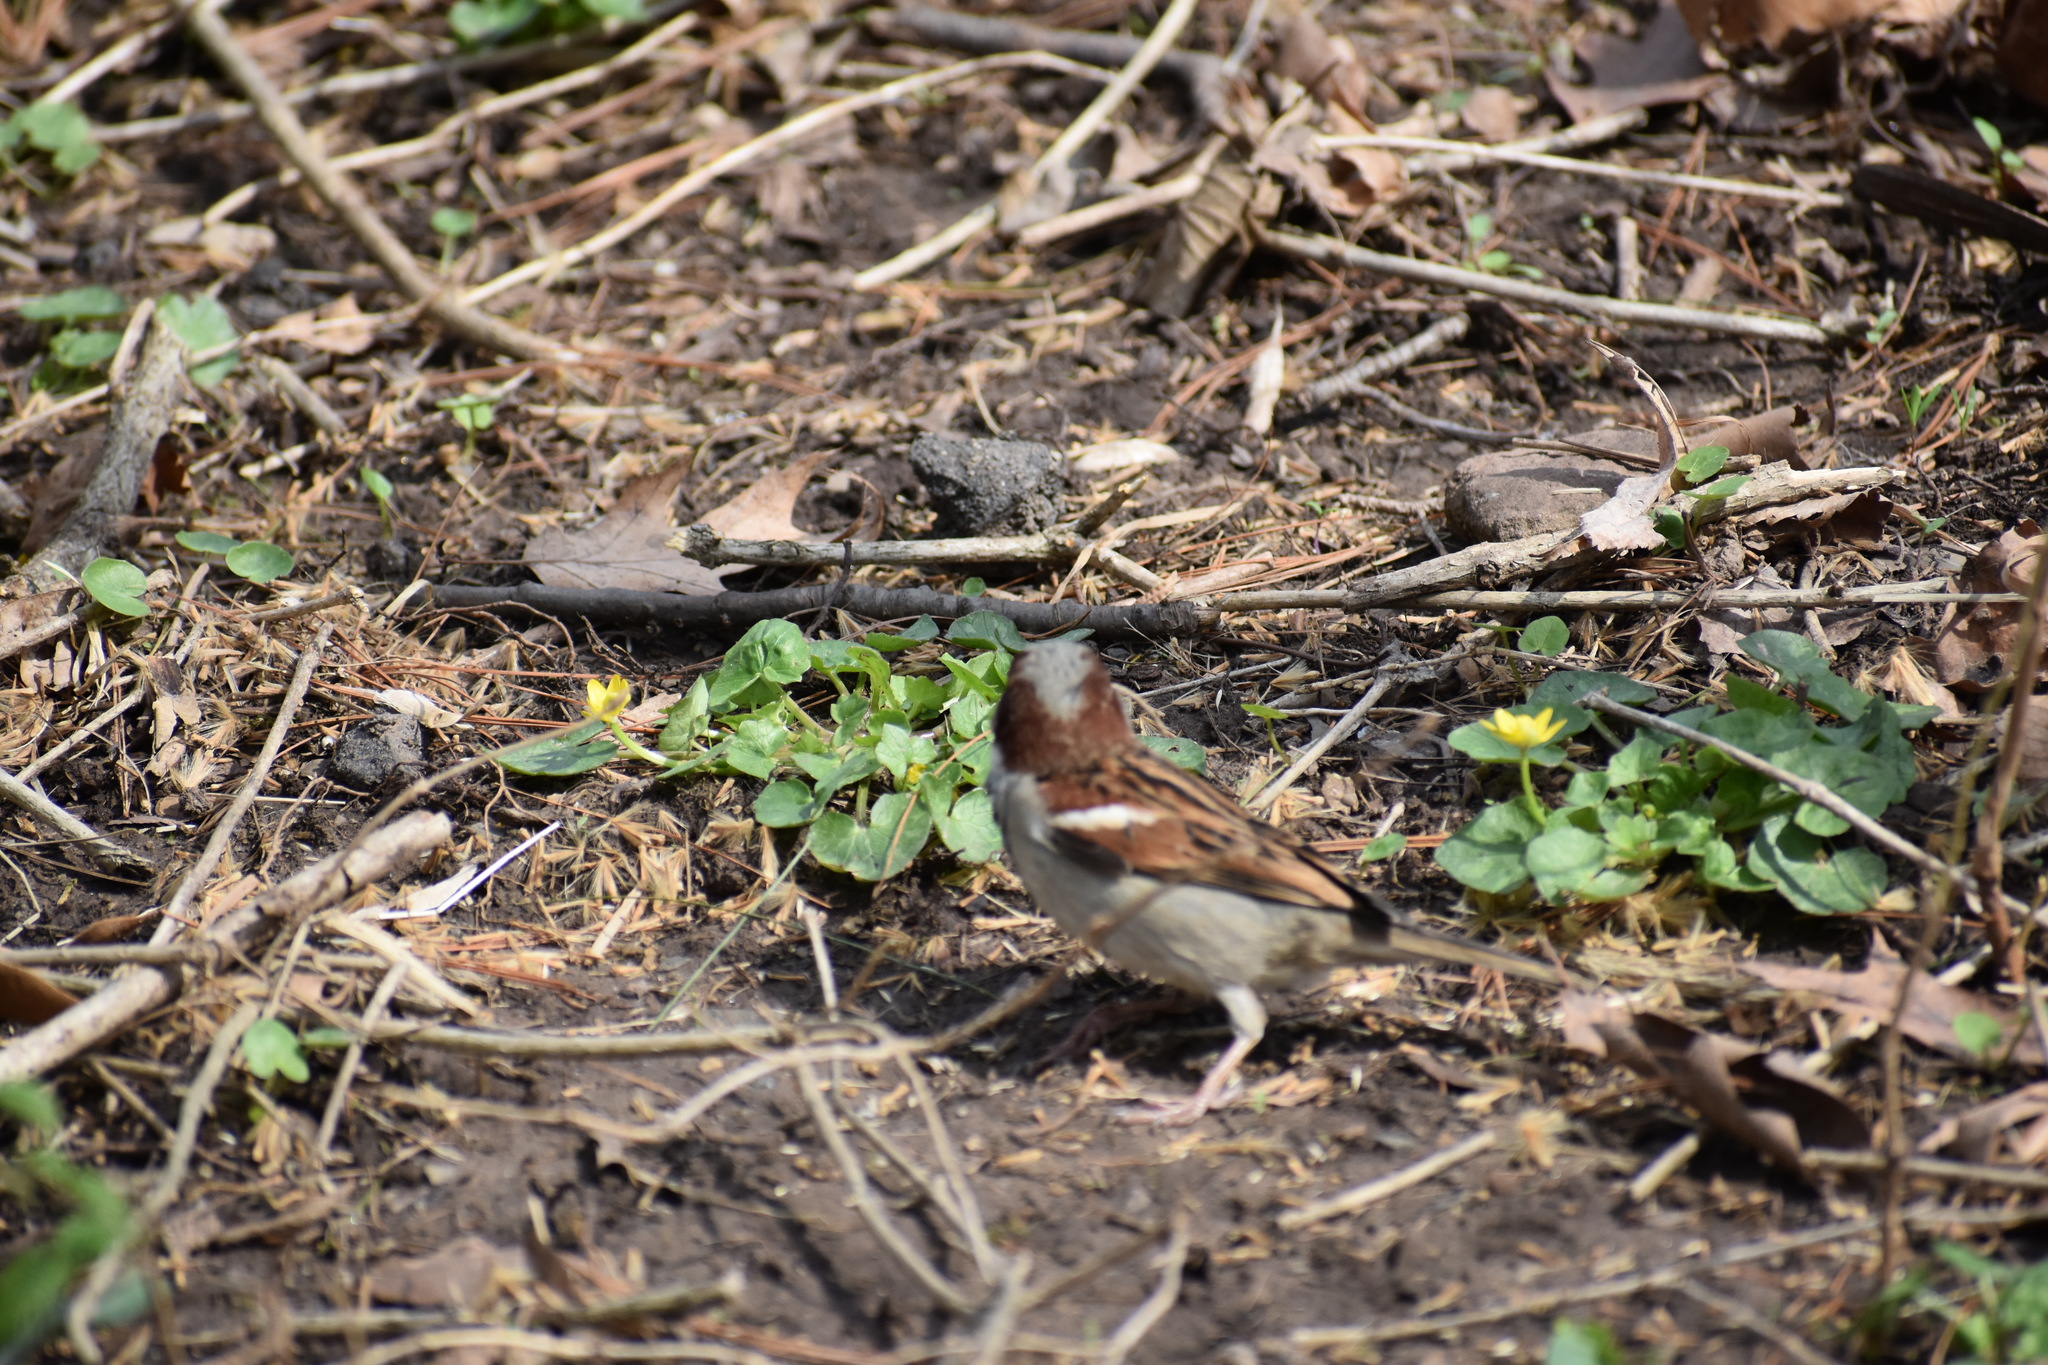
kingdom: Animalia
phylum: Chordata
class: Aves
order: Passeriformes
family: Passeridae
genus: Passer
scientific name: Passer domesticus
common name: House sparrow
